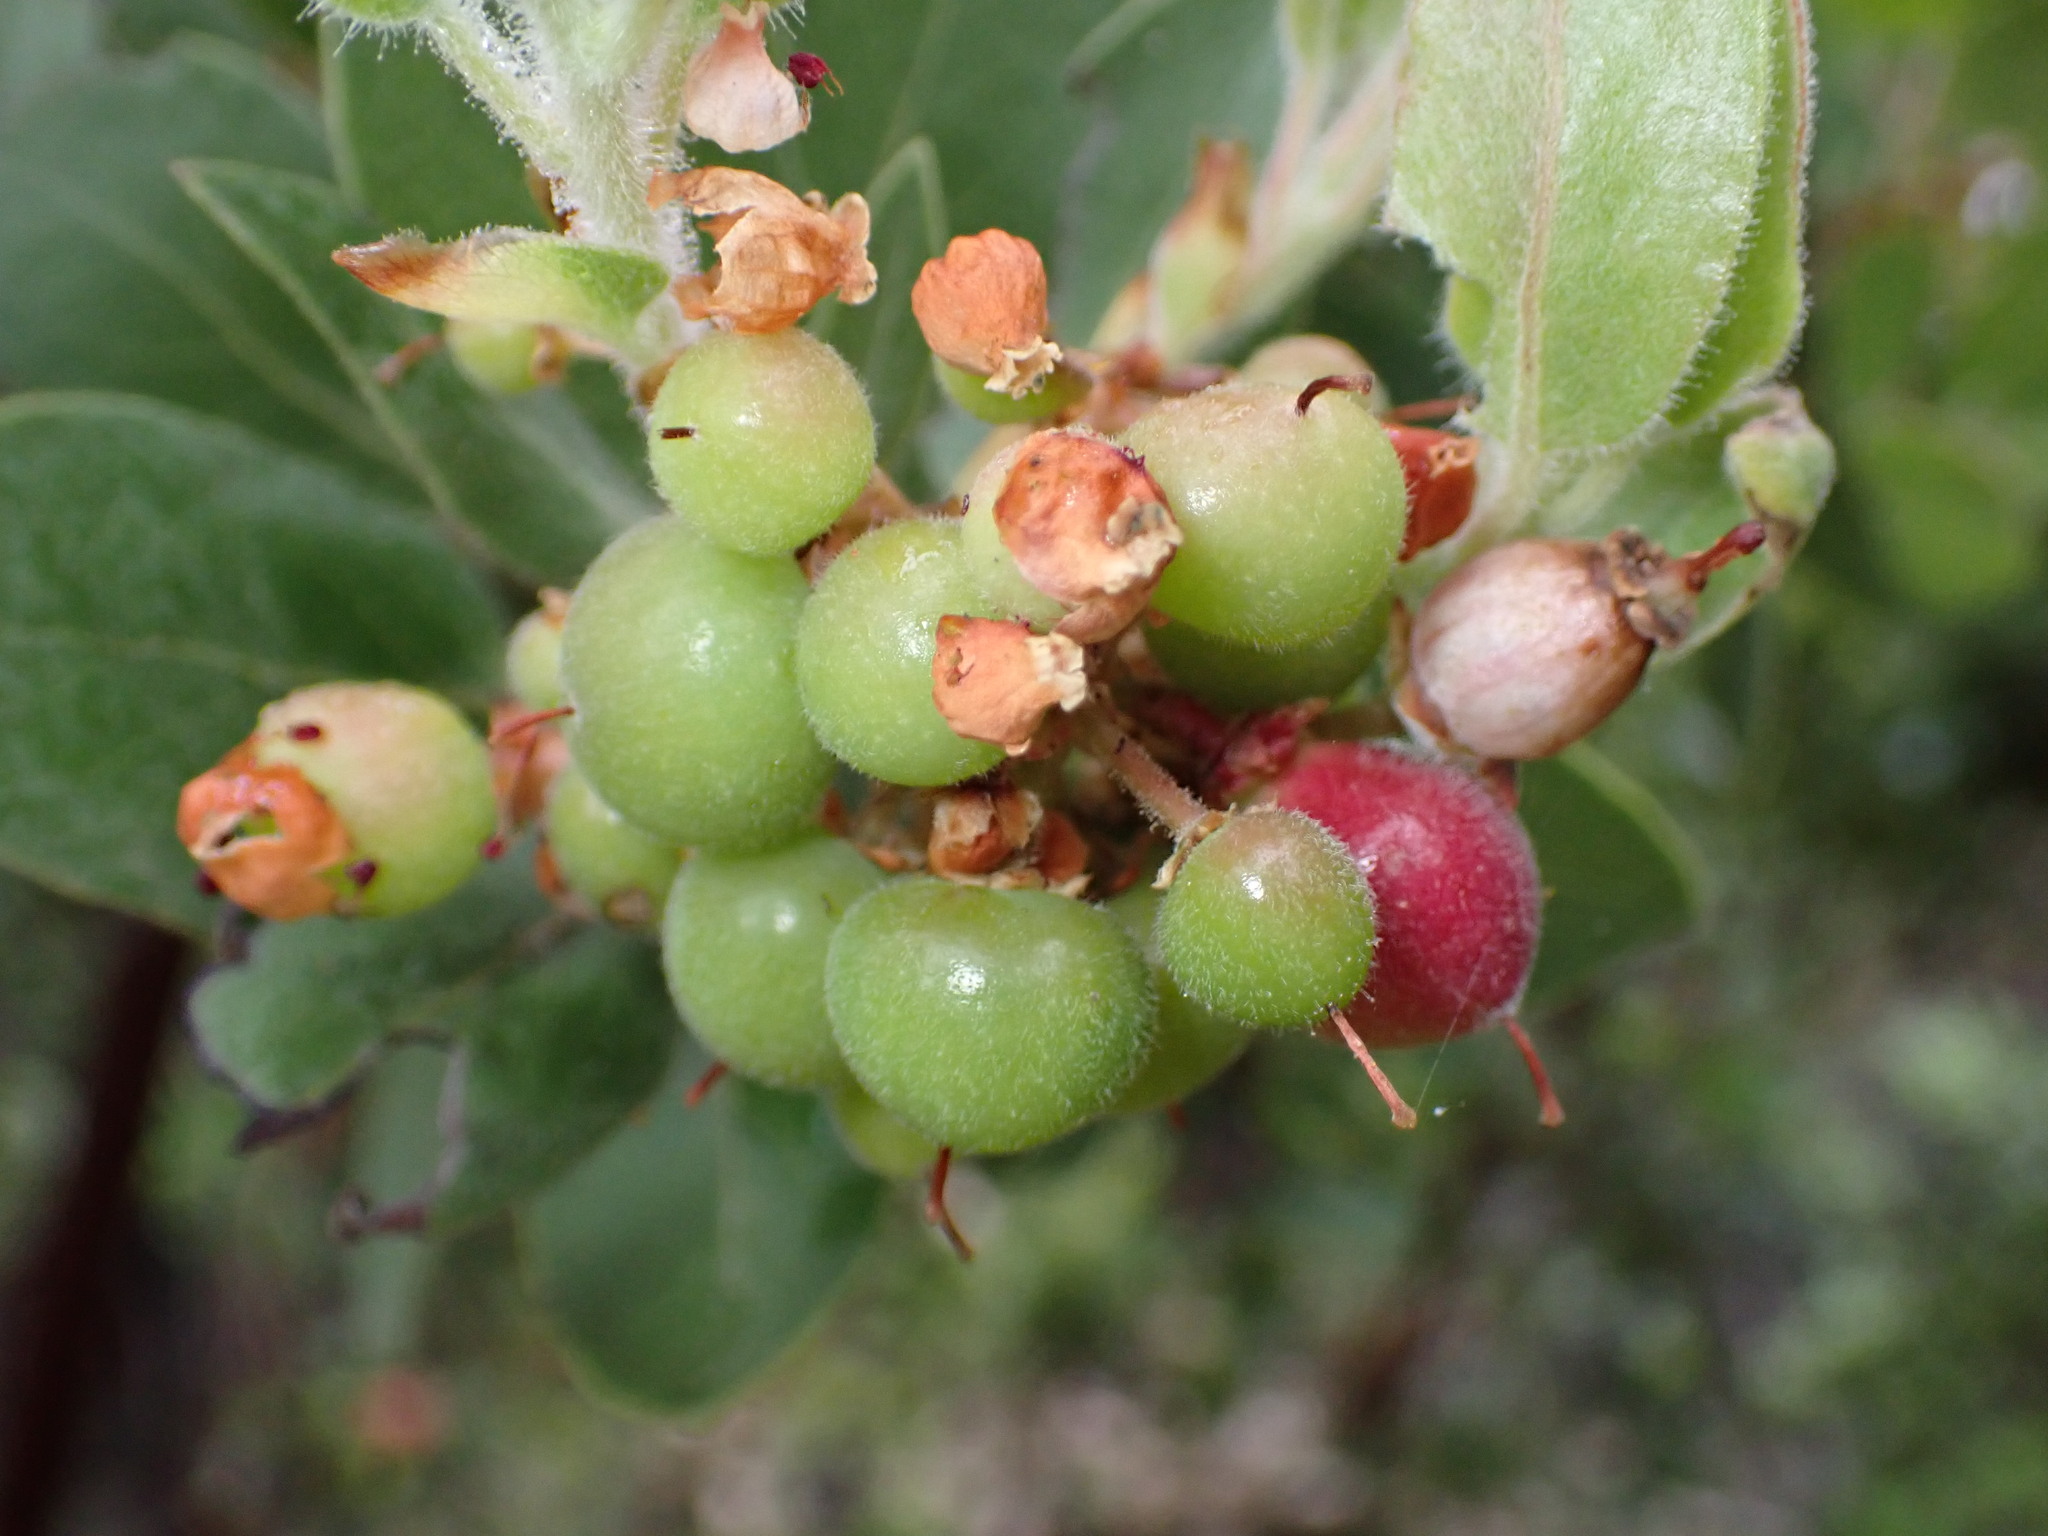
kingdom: Plantae
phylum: Tracheophyta
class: Magnoliopsida
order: Ericales
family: Ericaceae
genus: Arctostaphylos
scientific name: Arctostaphylos glandulosa
